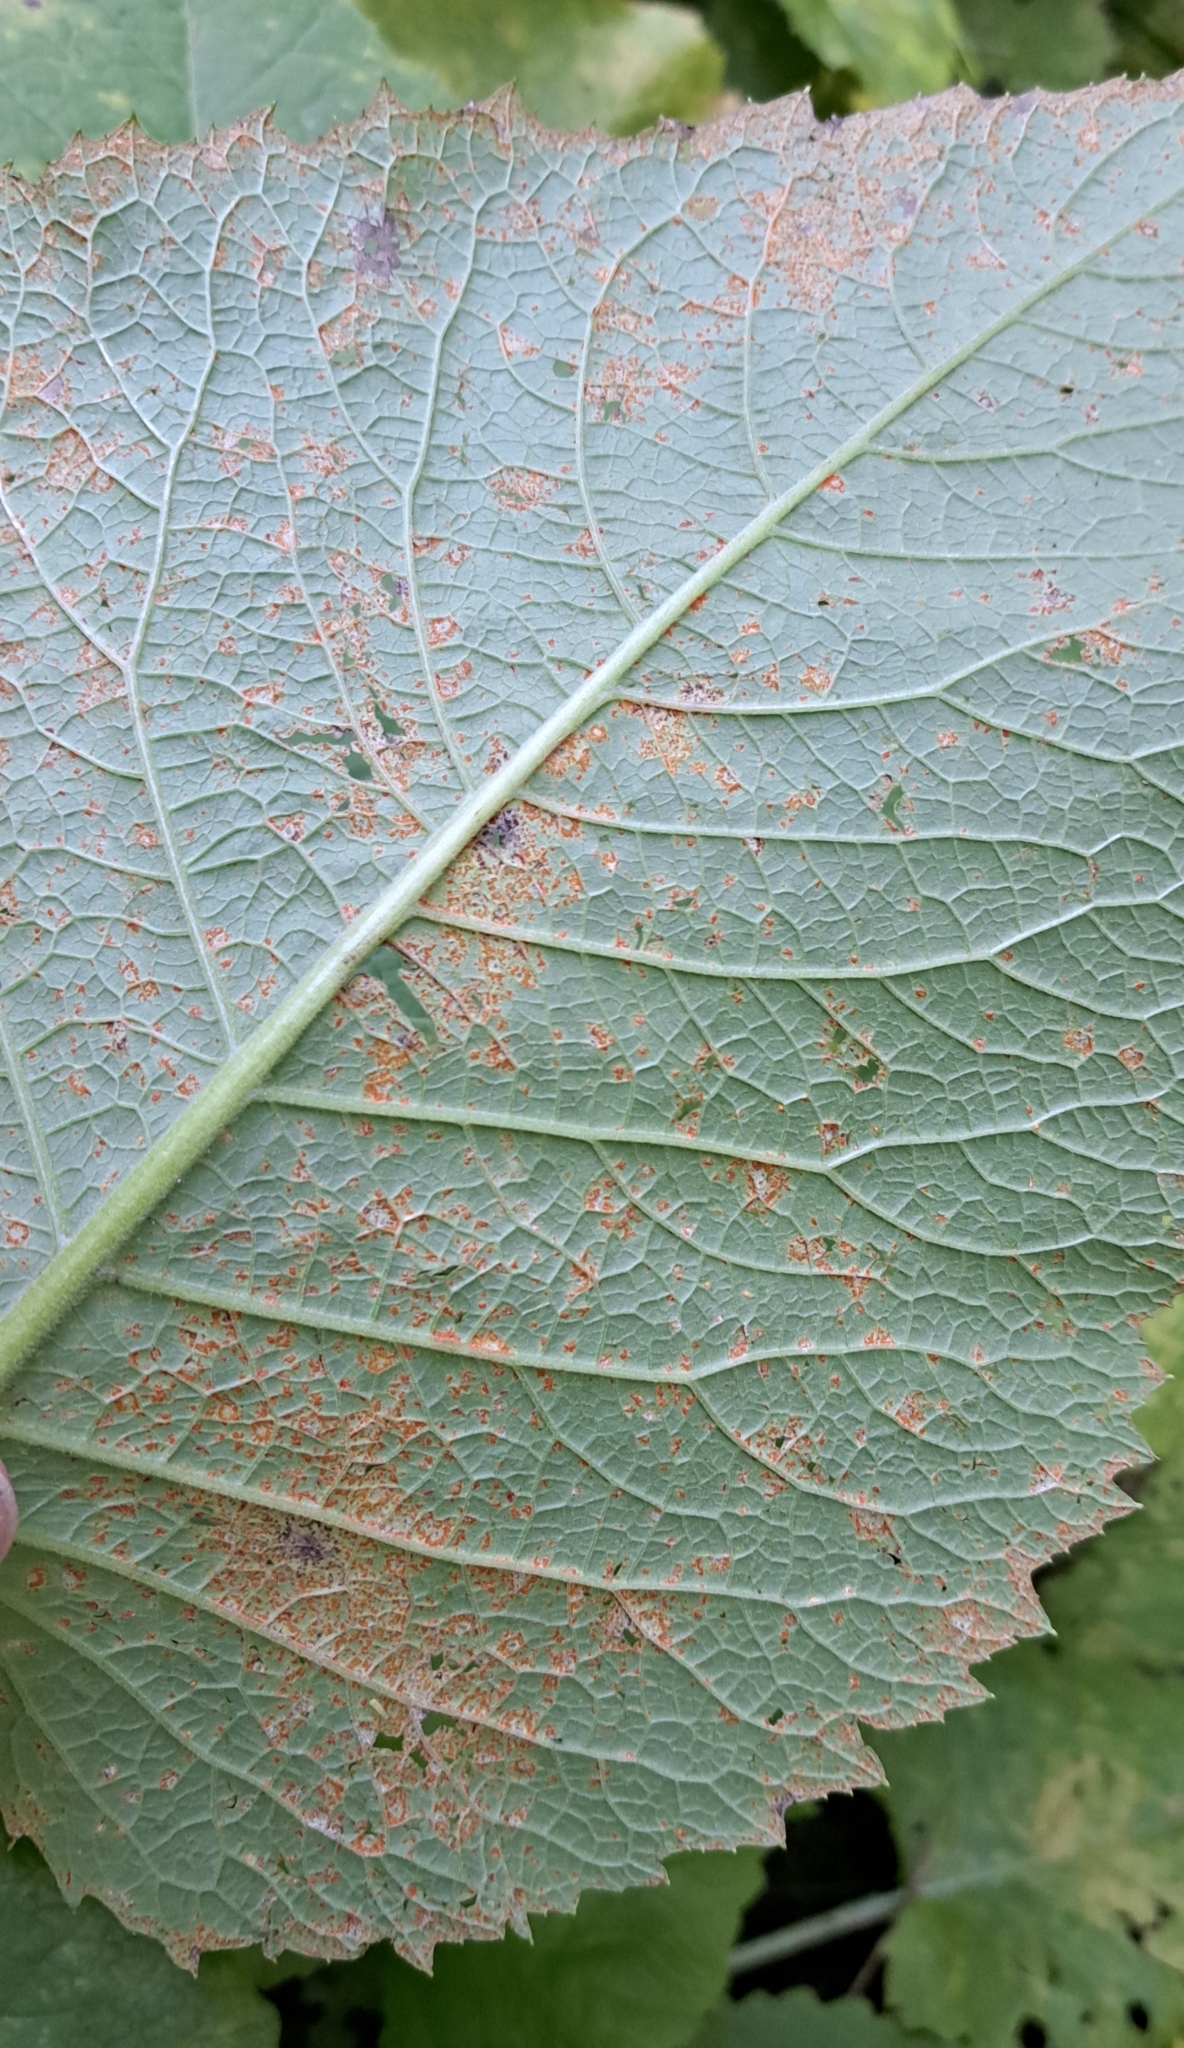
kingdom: Fungi
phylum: Basidiomycota
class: Pucciniomycetes
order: Pucciniales
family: Coleosporiaceae
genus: Coleosporium
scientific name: Coleosporium telekiae
